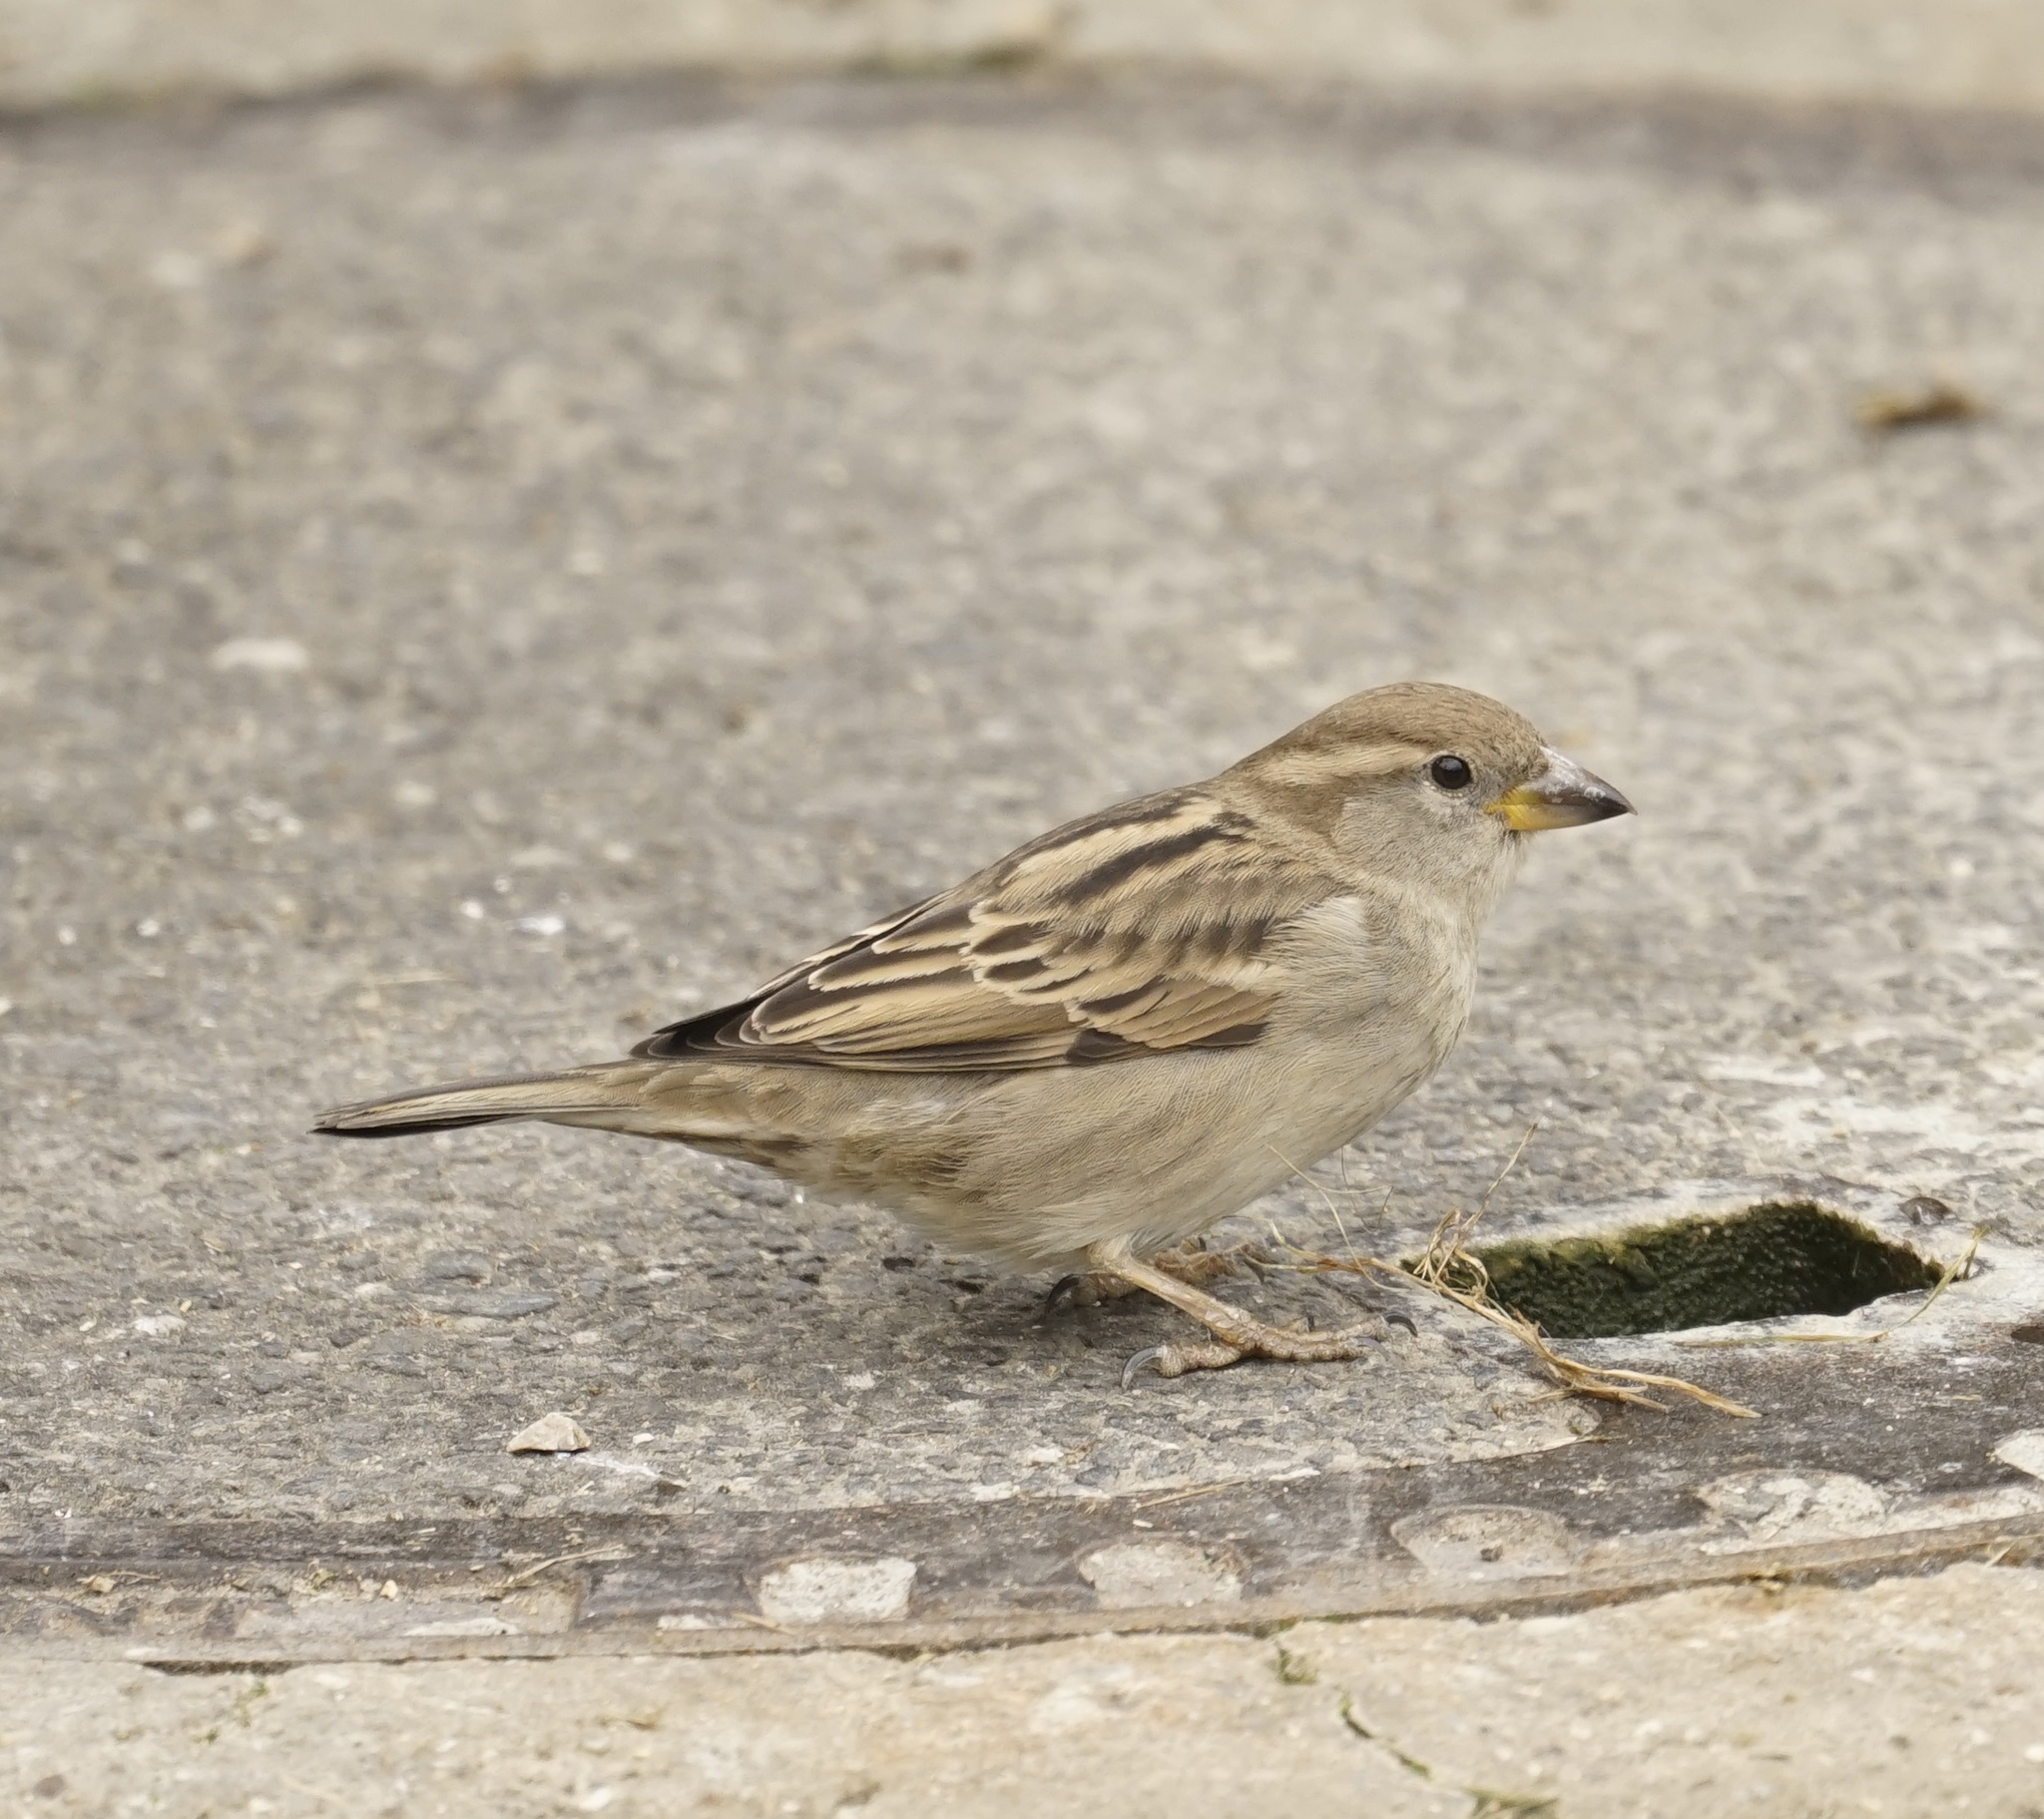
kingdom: Animalia
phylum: Chordata
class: Aves
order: Passeriformes
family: Passeridae
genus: Passer
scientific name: Passer domesticus
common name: House sparrow
